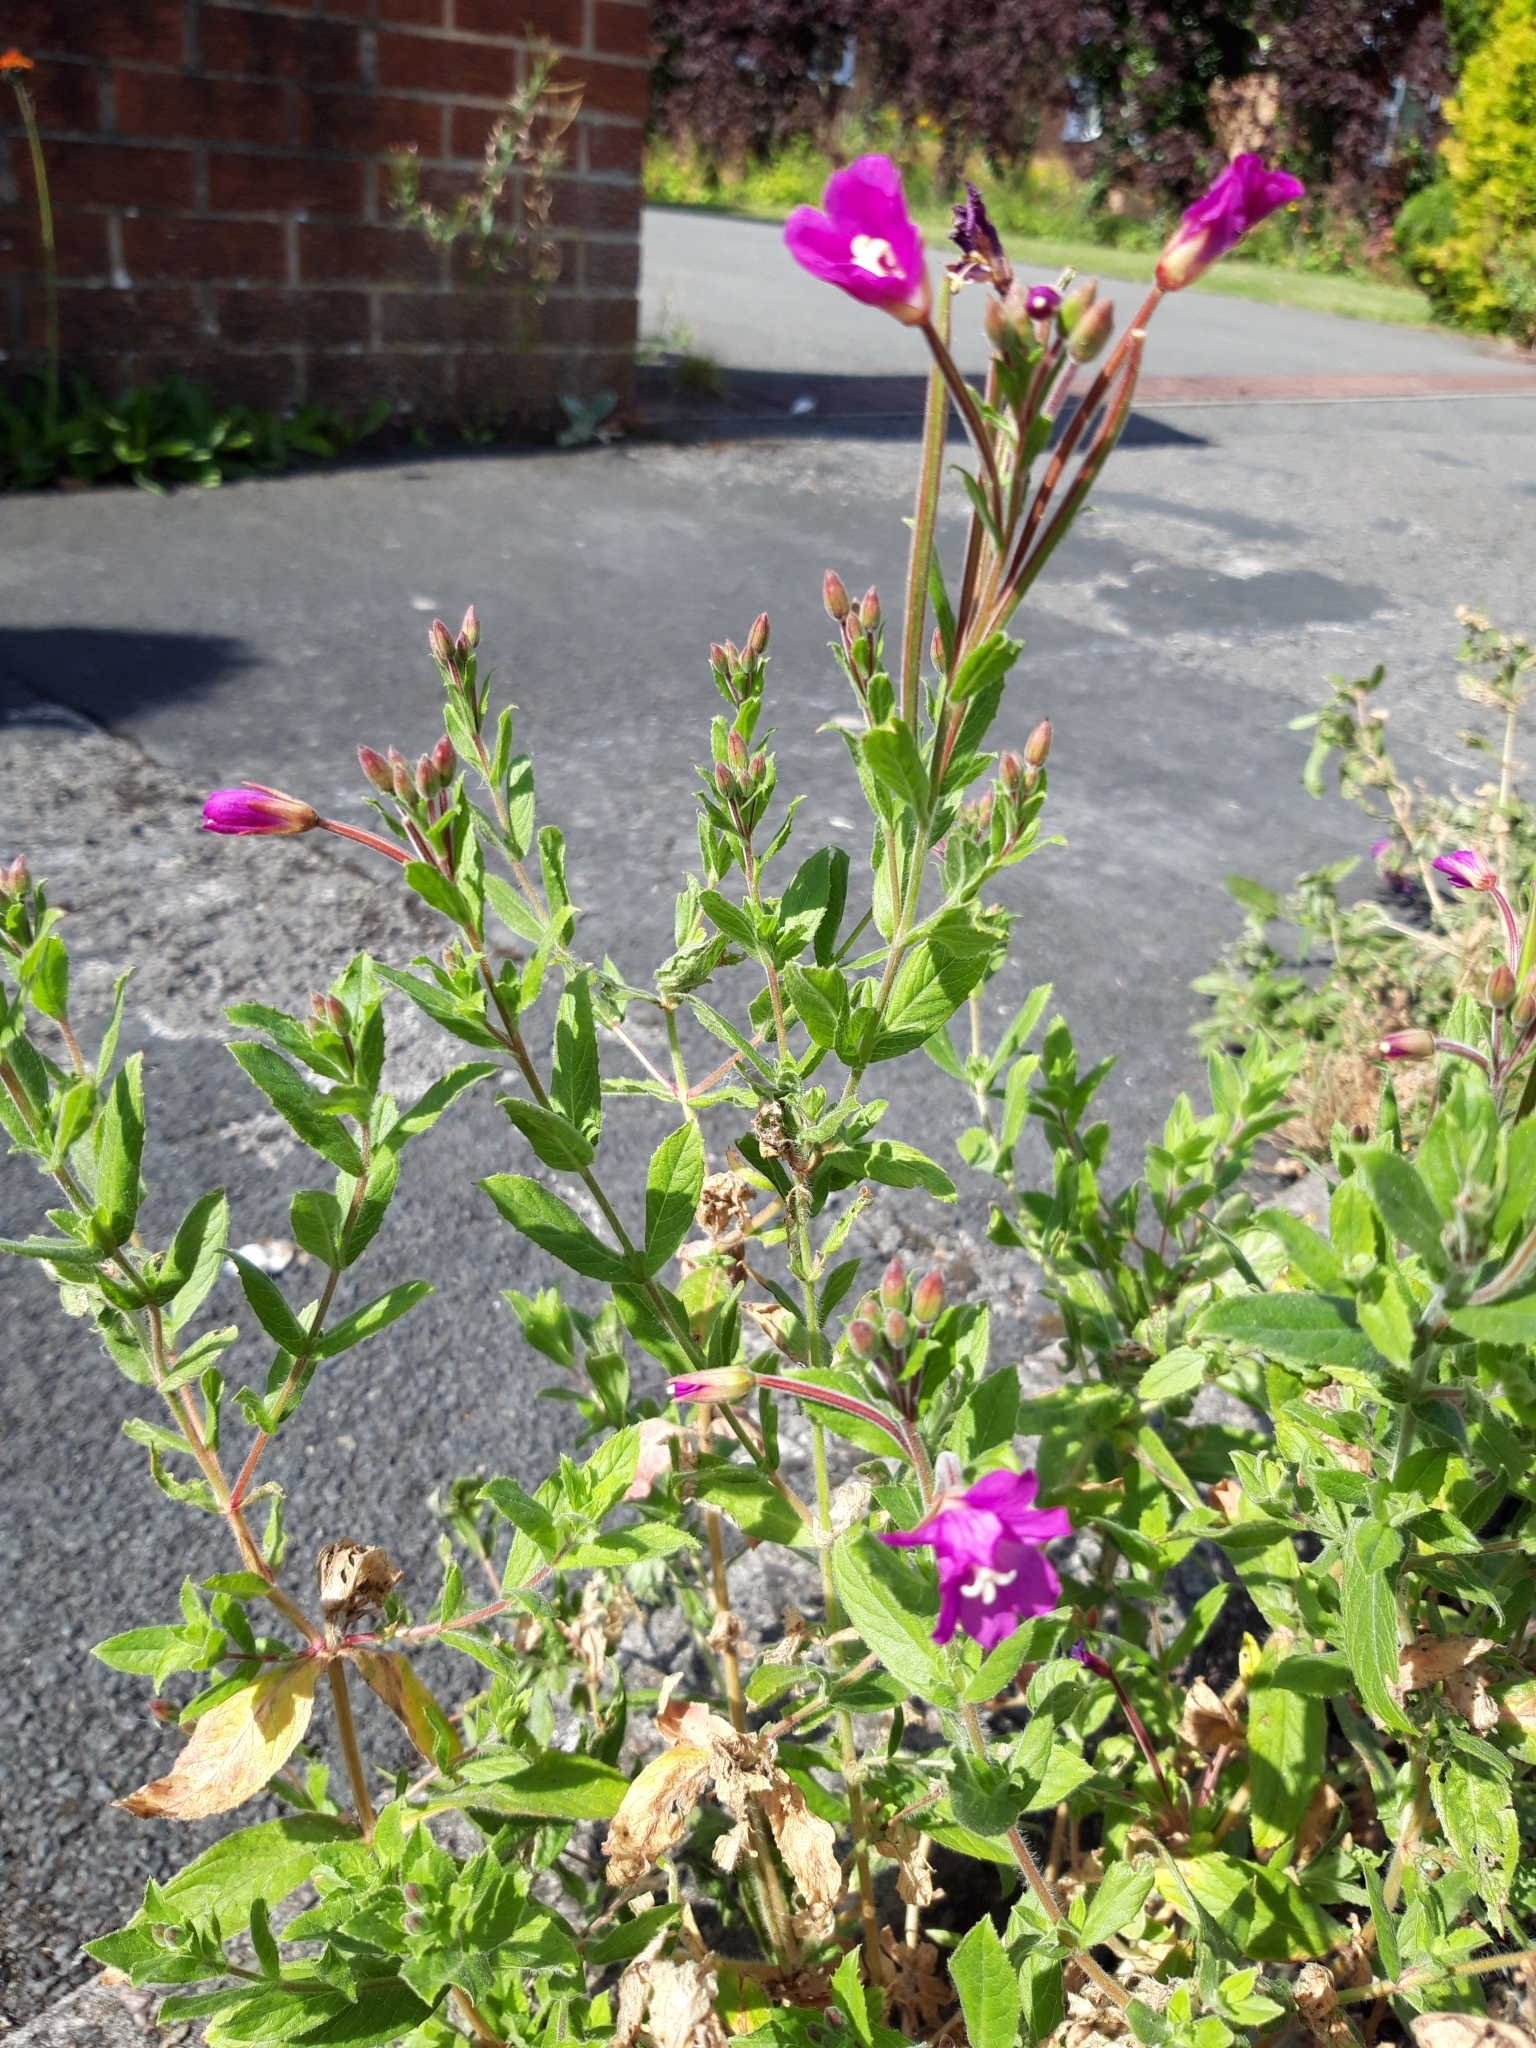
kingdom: Plantae
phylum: Tracheophyta
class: Magnoliopsida
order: Myrtales
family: Onagraceae
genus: Epilobium
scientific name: Epilobium hirsutum
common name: Great willowherb
